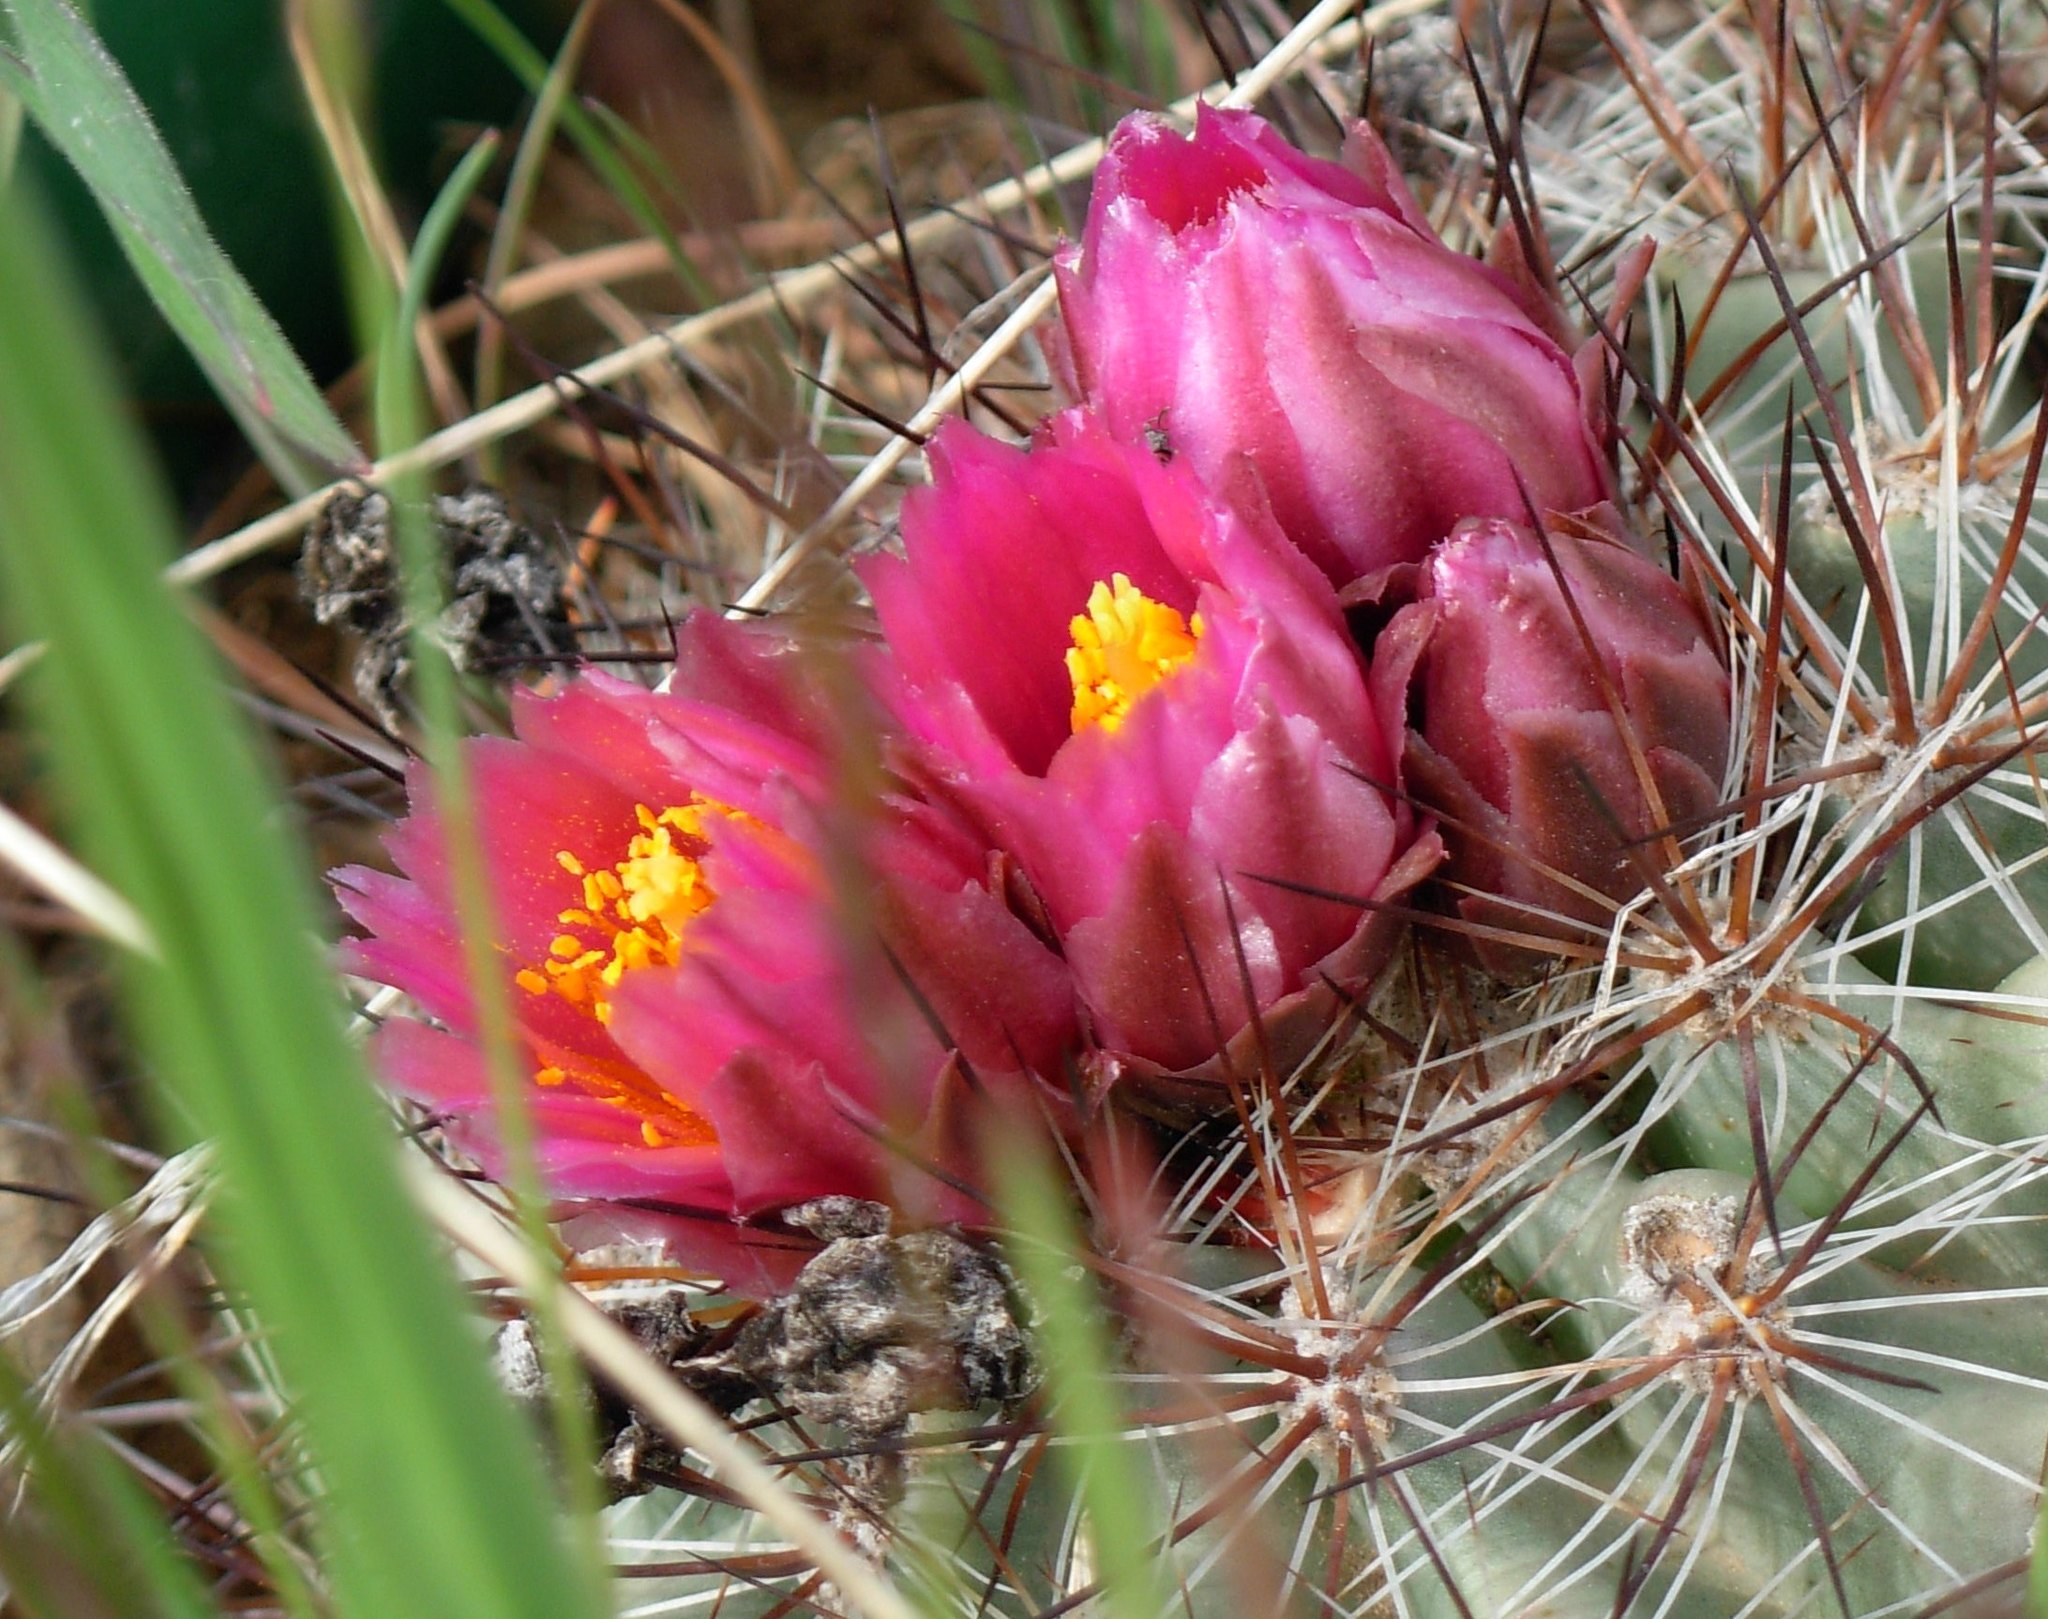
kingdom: Plantae
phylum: Tracheophyta
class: Magnoliopsida
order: Caryophyllales
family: Cactaceae
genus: Pediocactus
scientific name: Pediocactus nigrispinus
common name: Simpson's hedgehog cactus
